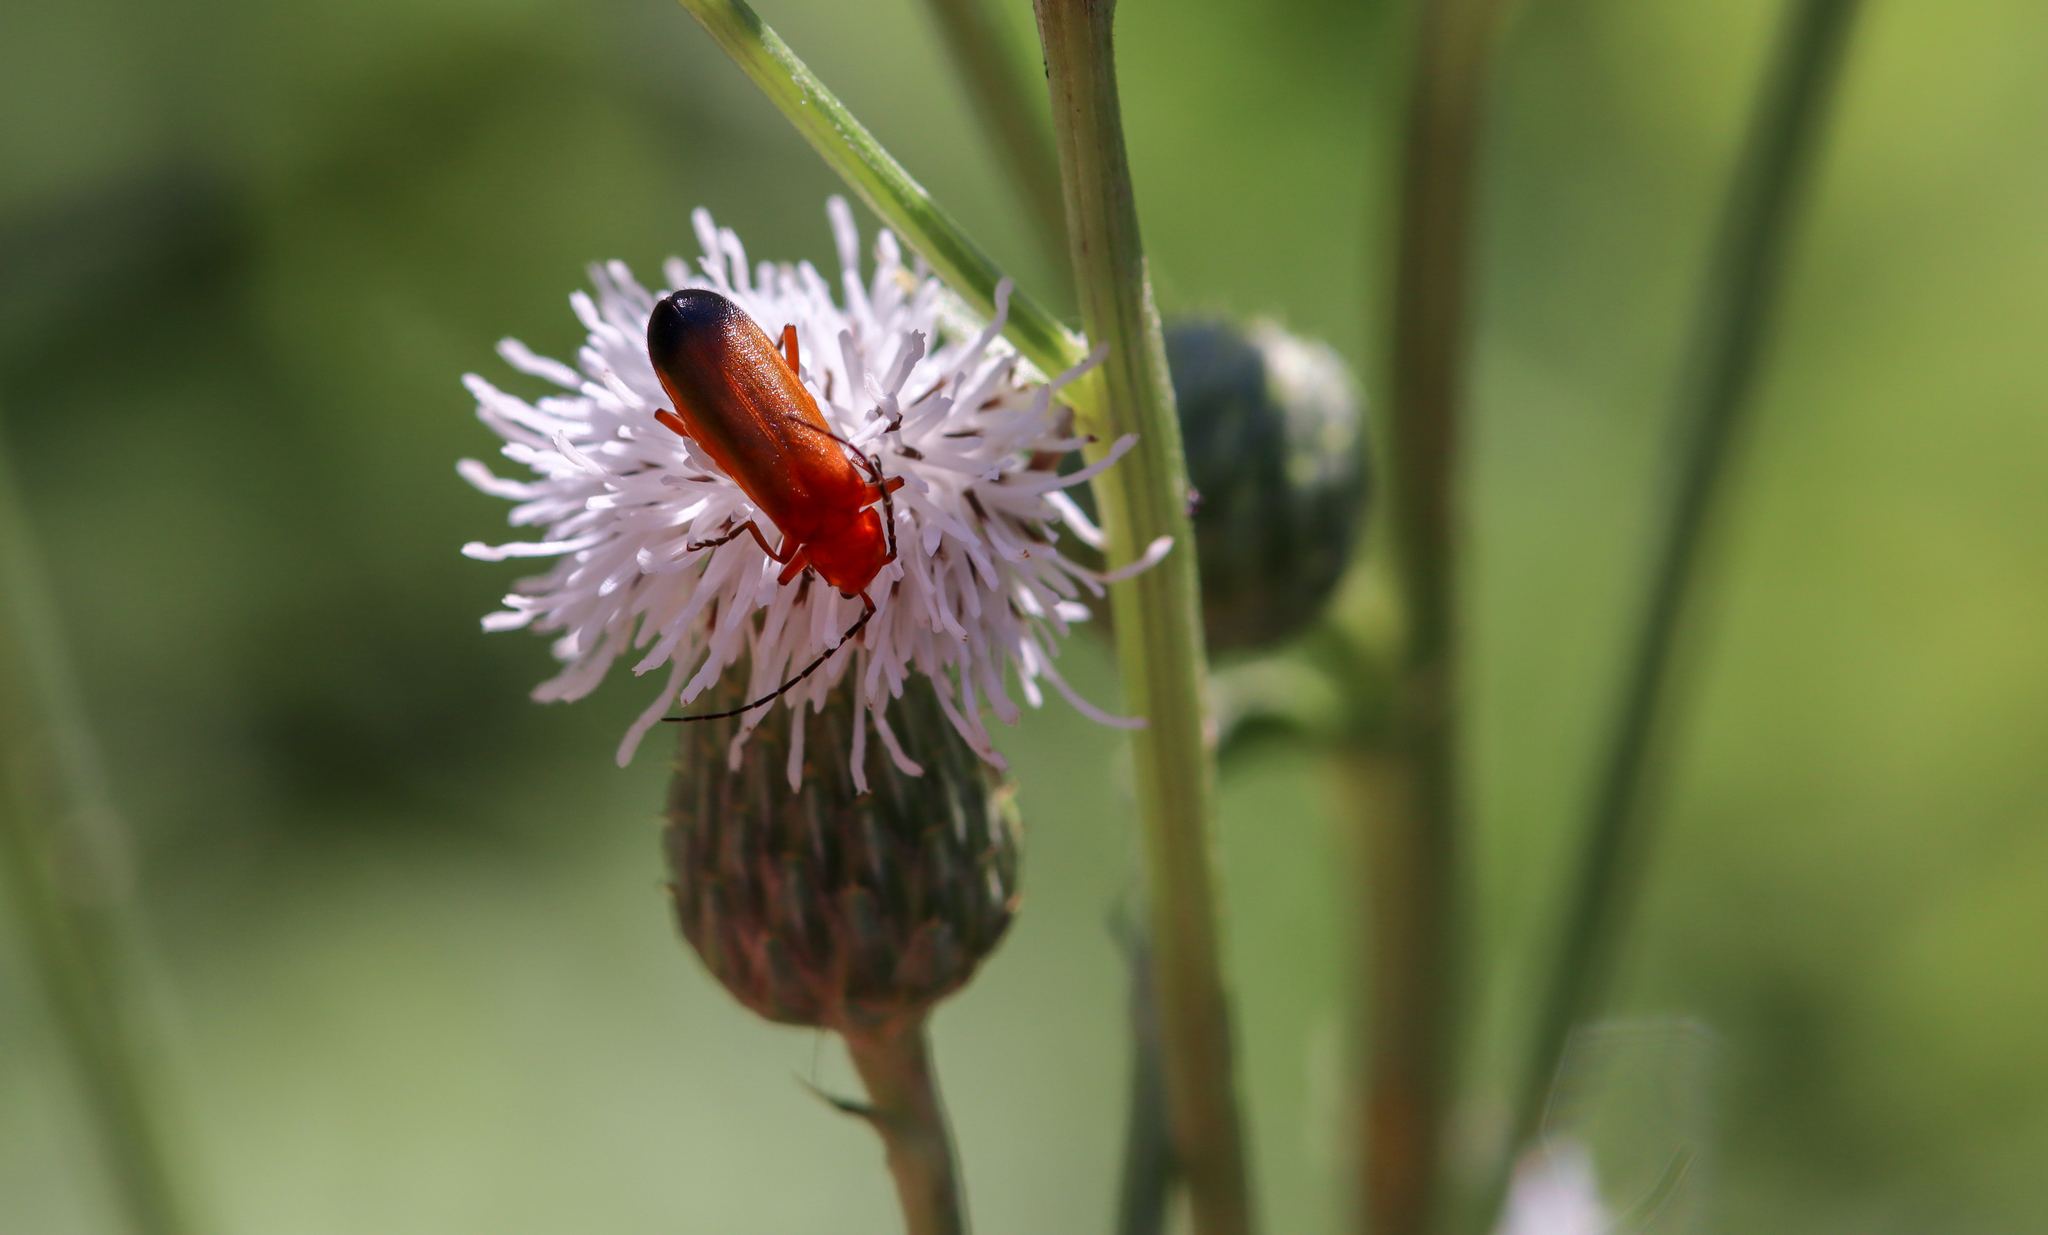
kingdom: Animalia
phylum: Arthropoda
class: Insecta
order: Coleoptera
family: Cantharidae
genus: Rhagonycha
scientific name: Rhagonycha fulva
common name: Common red soldier beetle
